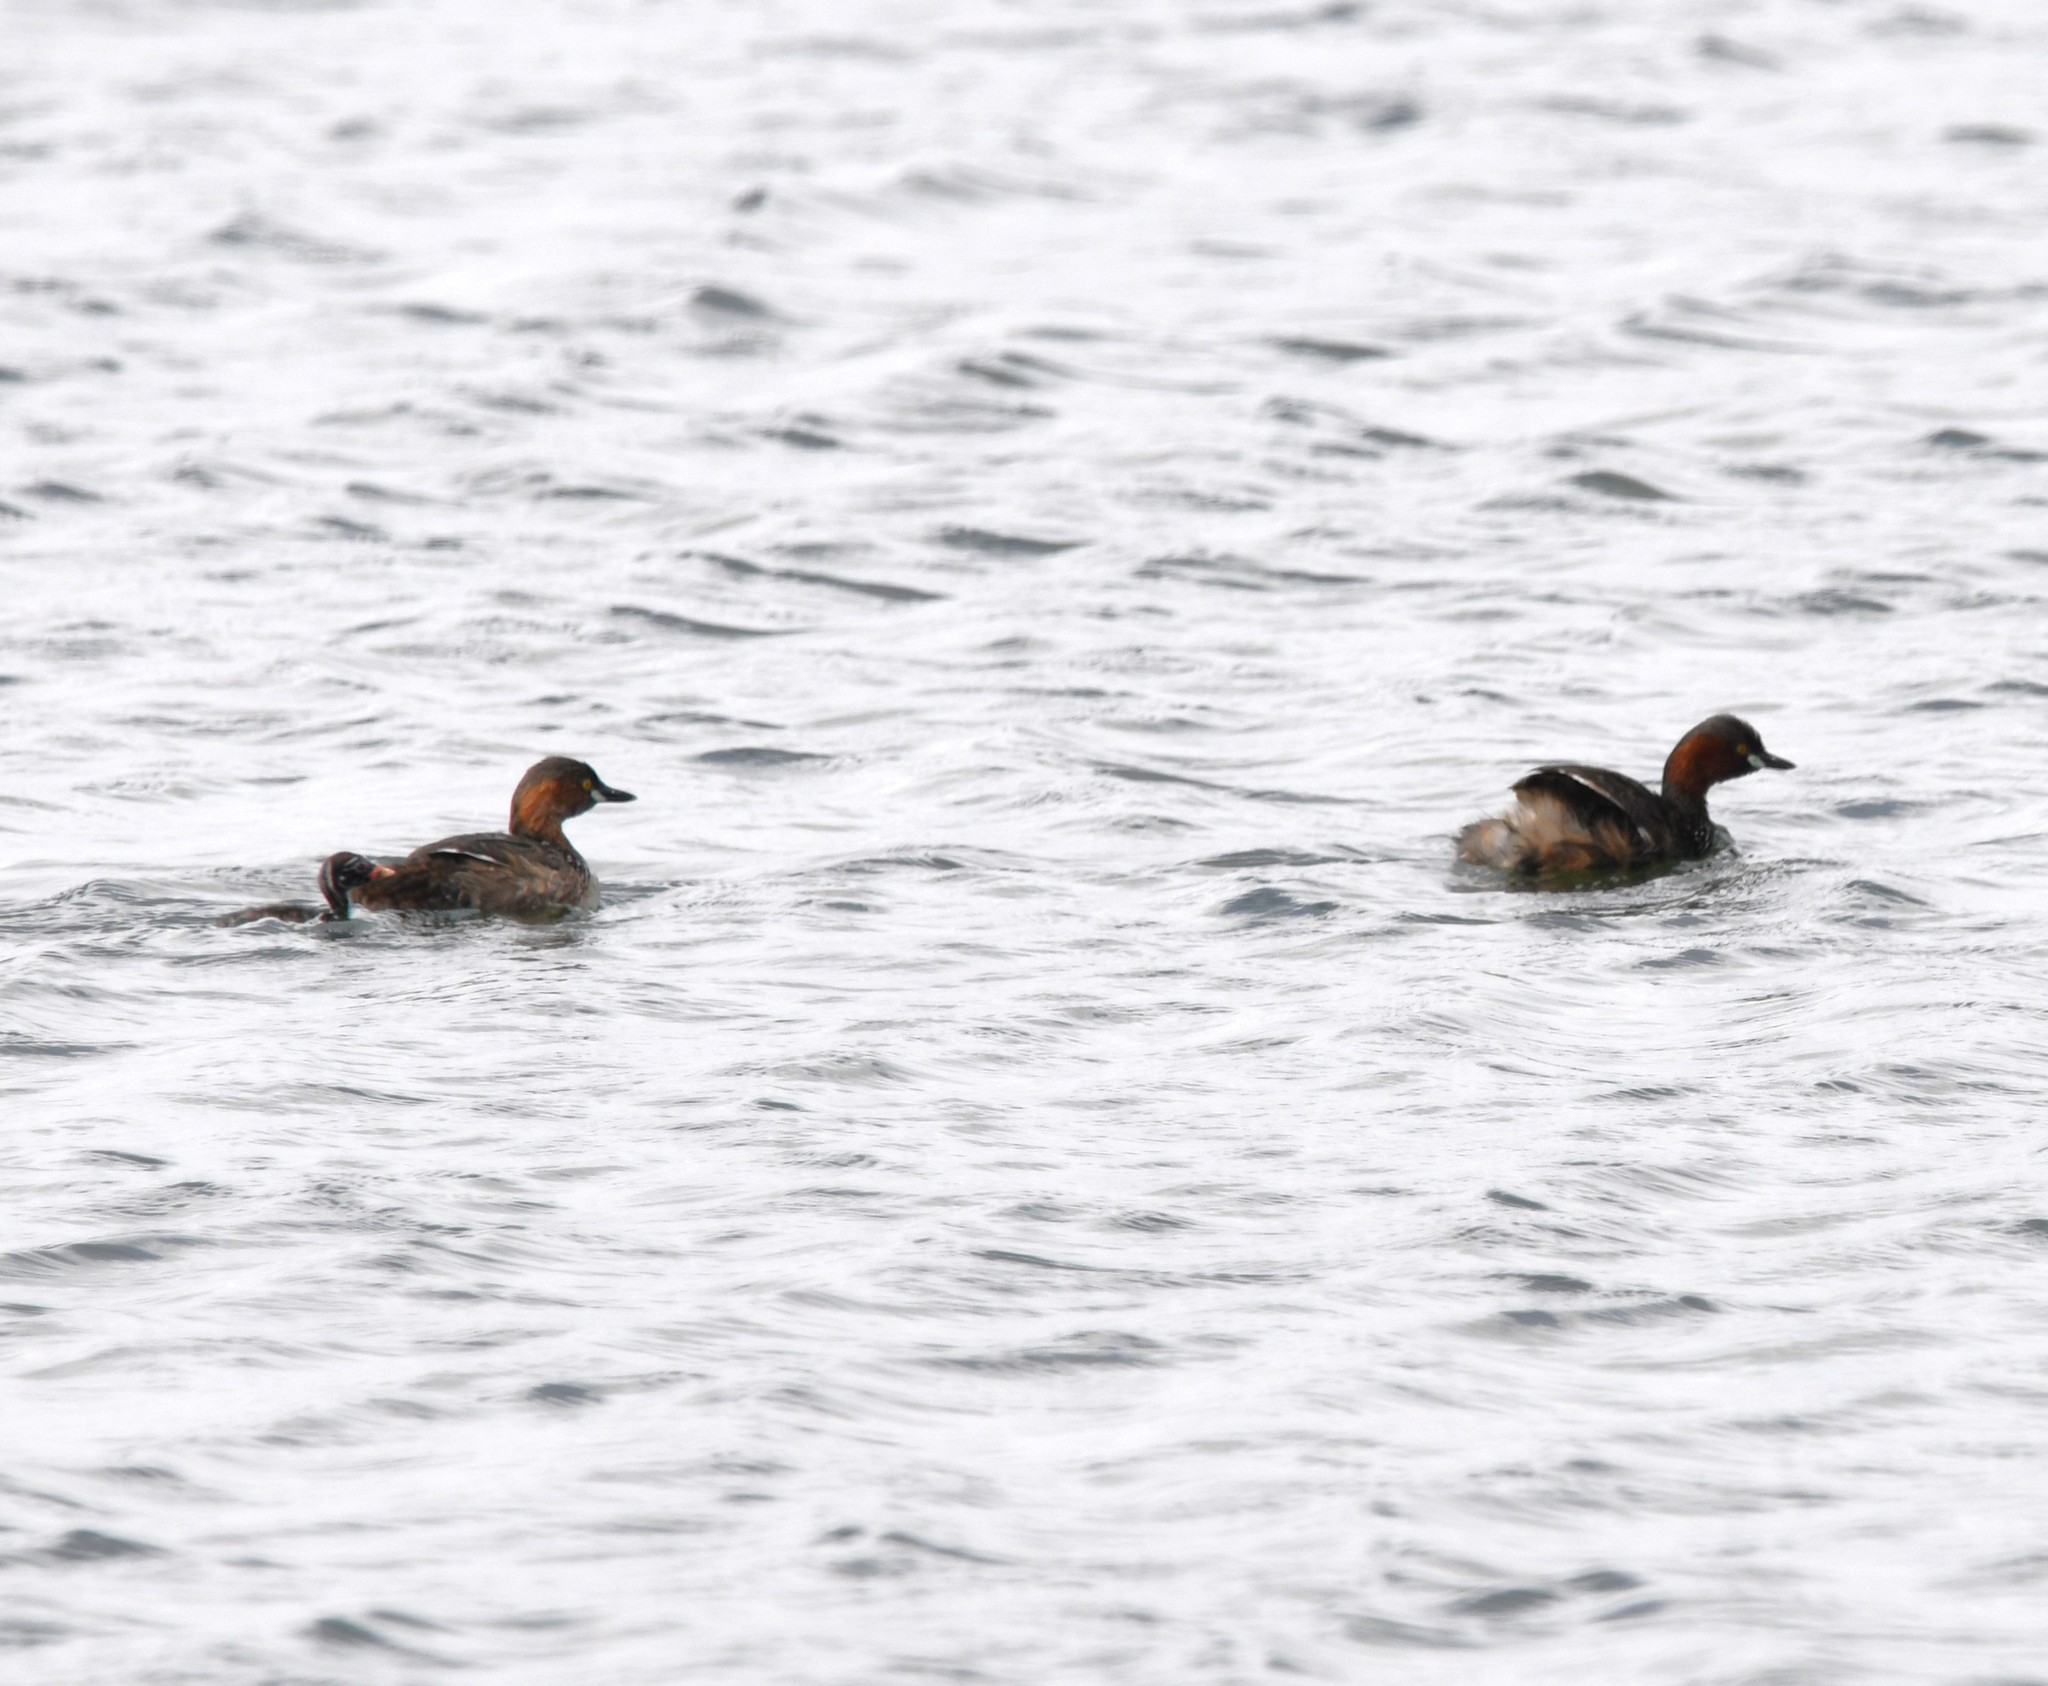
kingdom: Animalia
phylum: Chordata
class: Aves
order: Podicipediformes
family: Podicipedidae
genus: Tachybaptus
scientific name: Tachybaptus ruficollis
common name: Little grebe
